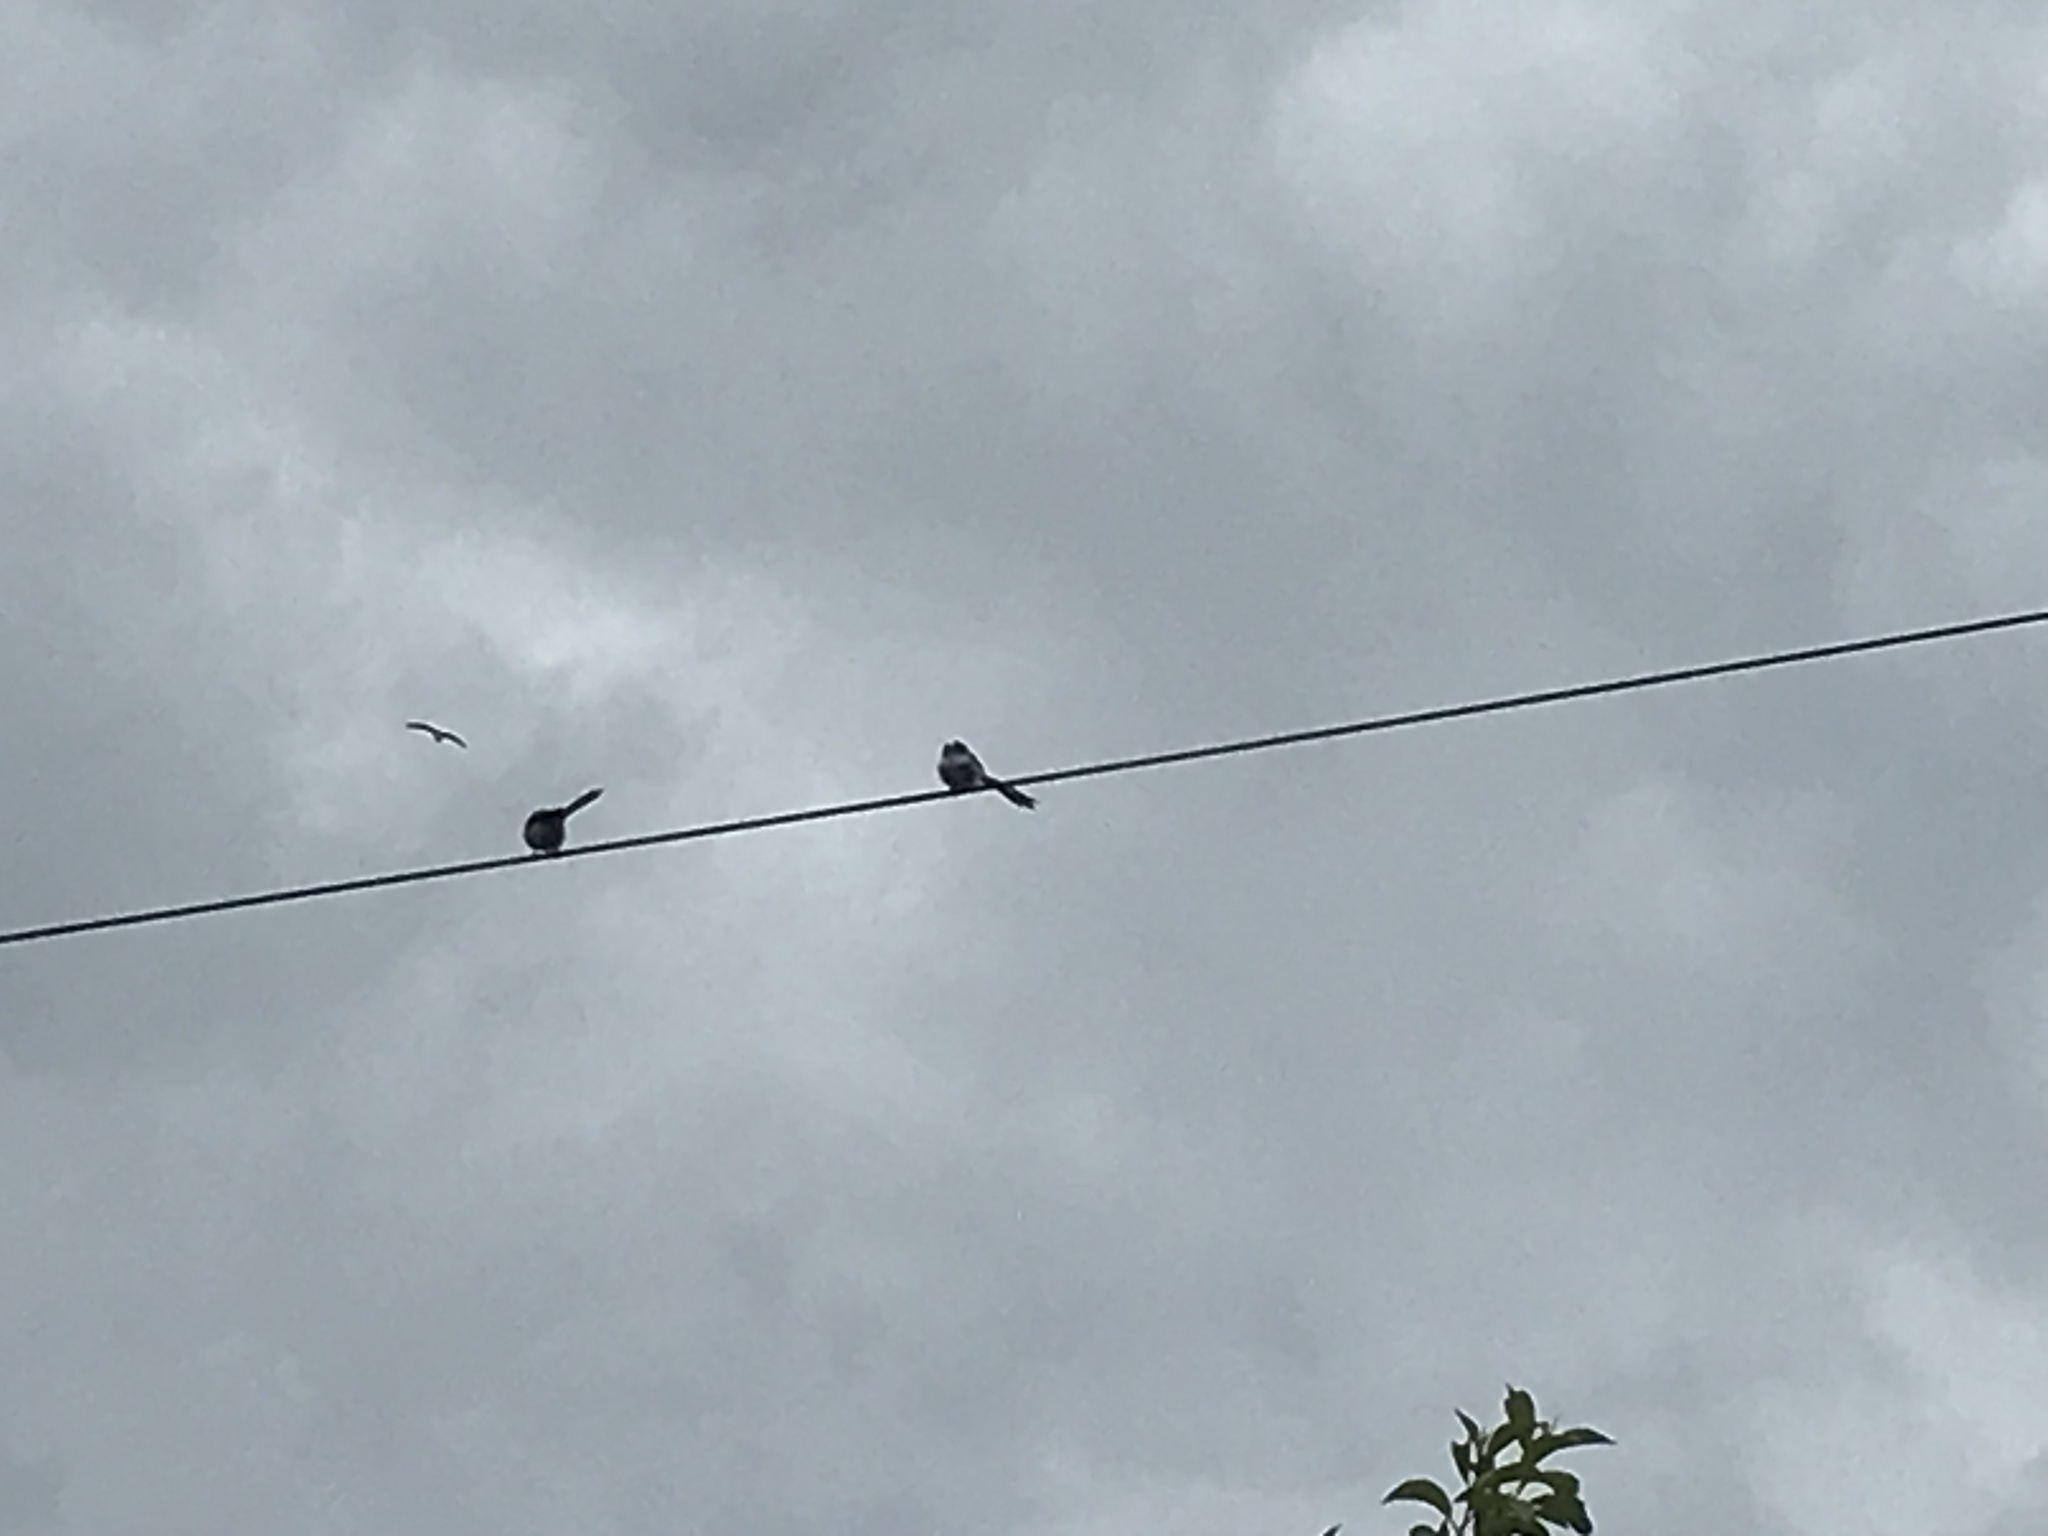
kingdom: Animalia
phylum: Chordata
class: Aves
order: Passeriformes
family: Aegithalidae
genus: Aegithalos
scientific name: Aegithalos caudatus
